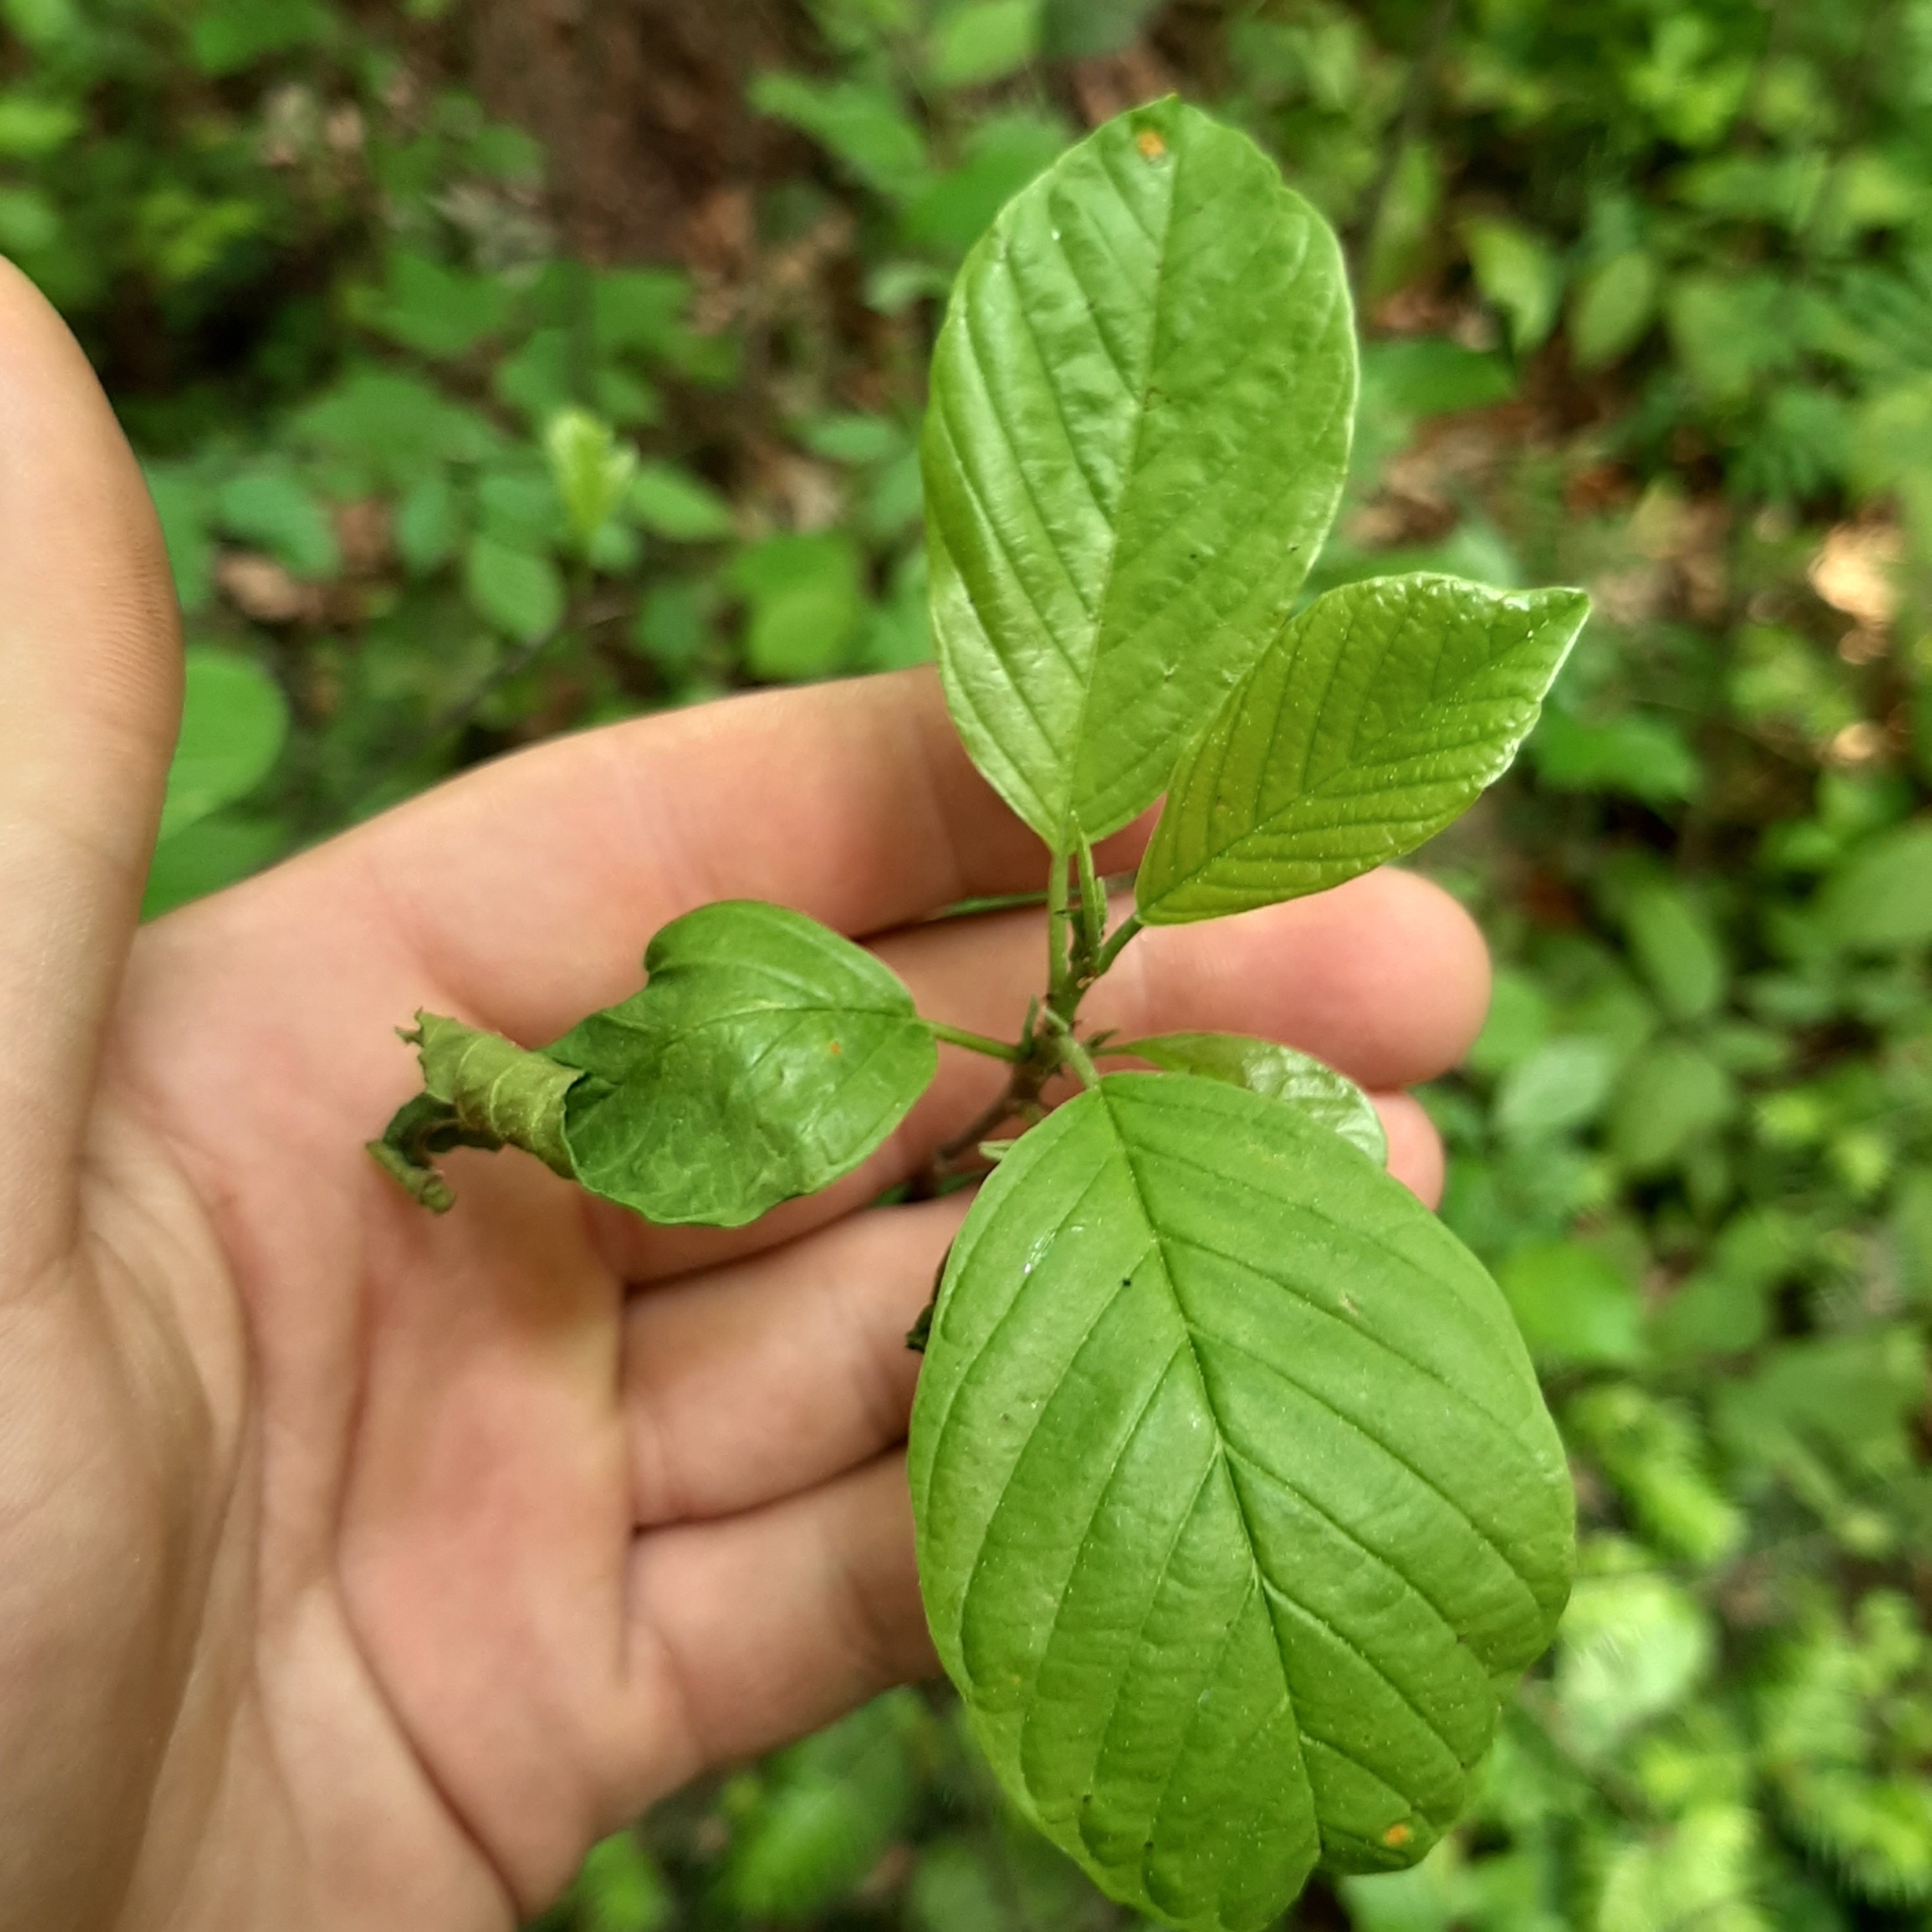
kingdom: Plantae
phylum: Tracheophyta
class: Magnoliopsida
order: Rosales
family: Rhamnaceae
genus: Frangula
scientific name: Frangula alnus
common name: Alder buckthorn
